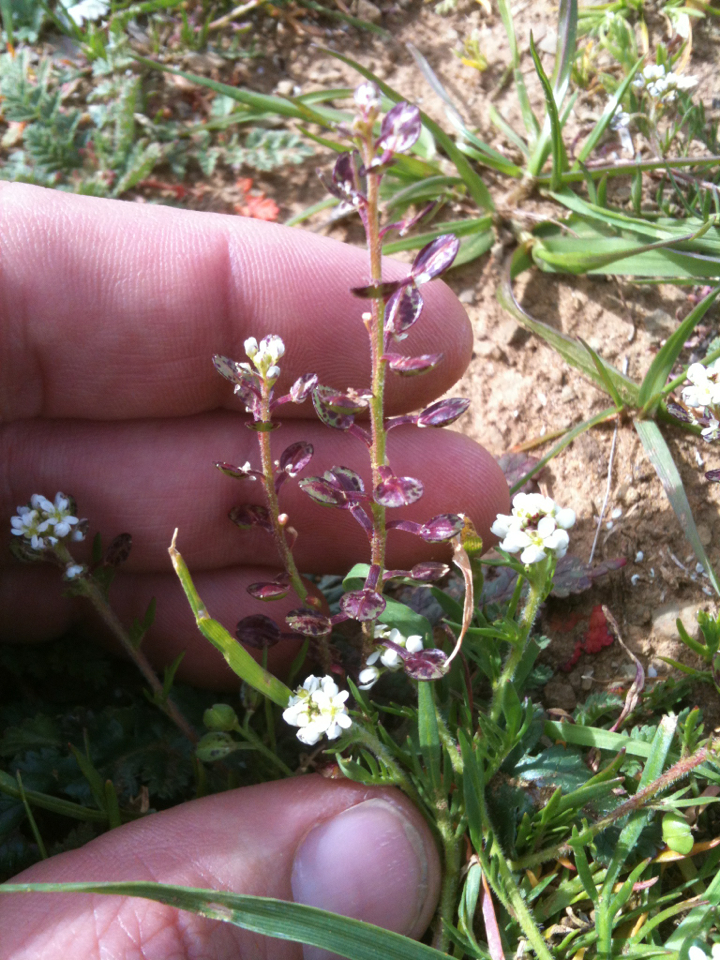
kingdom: Plantae
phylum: Tracheophyta
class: Magnoliopsida
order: Brassicales
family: Brassicaceae
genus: Lepidium
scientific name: Lepidium nitidum
